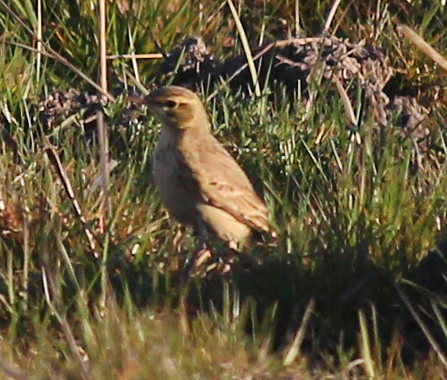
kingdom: Animalia
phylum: Chordata
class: Aves
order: Passeriformes
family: Motacillidae
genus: Anthus
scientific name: Anthus campestris
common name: Tawny pipit
